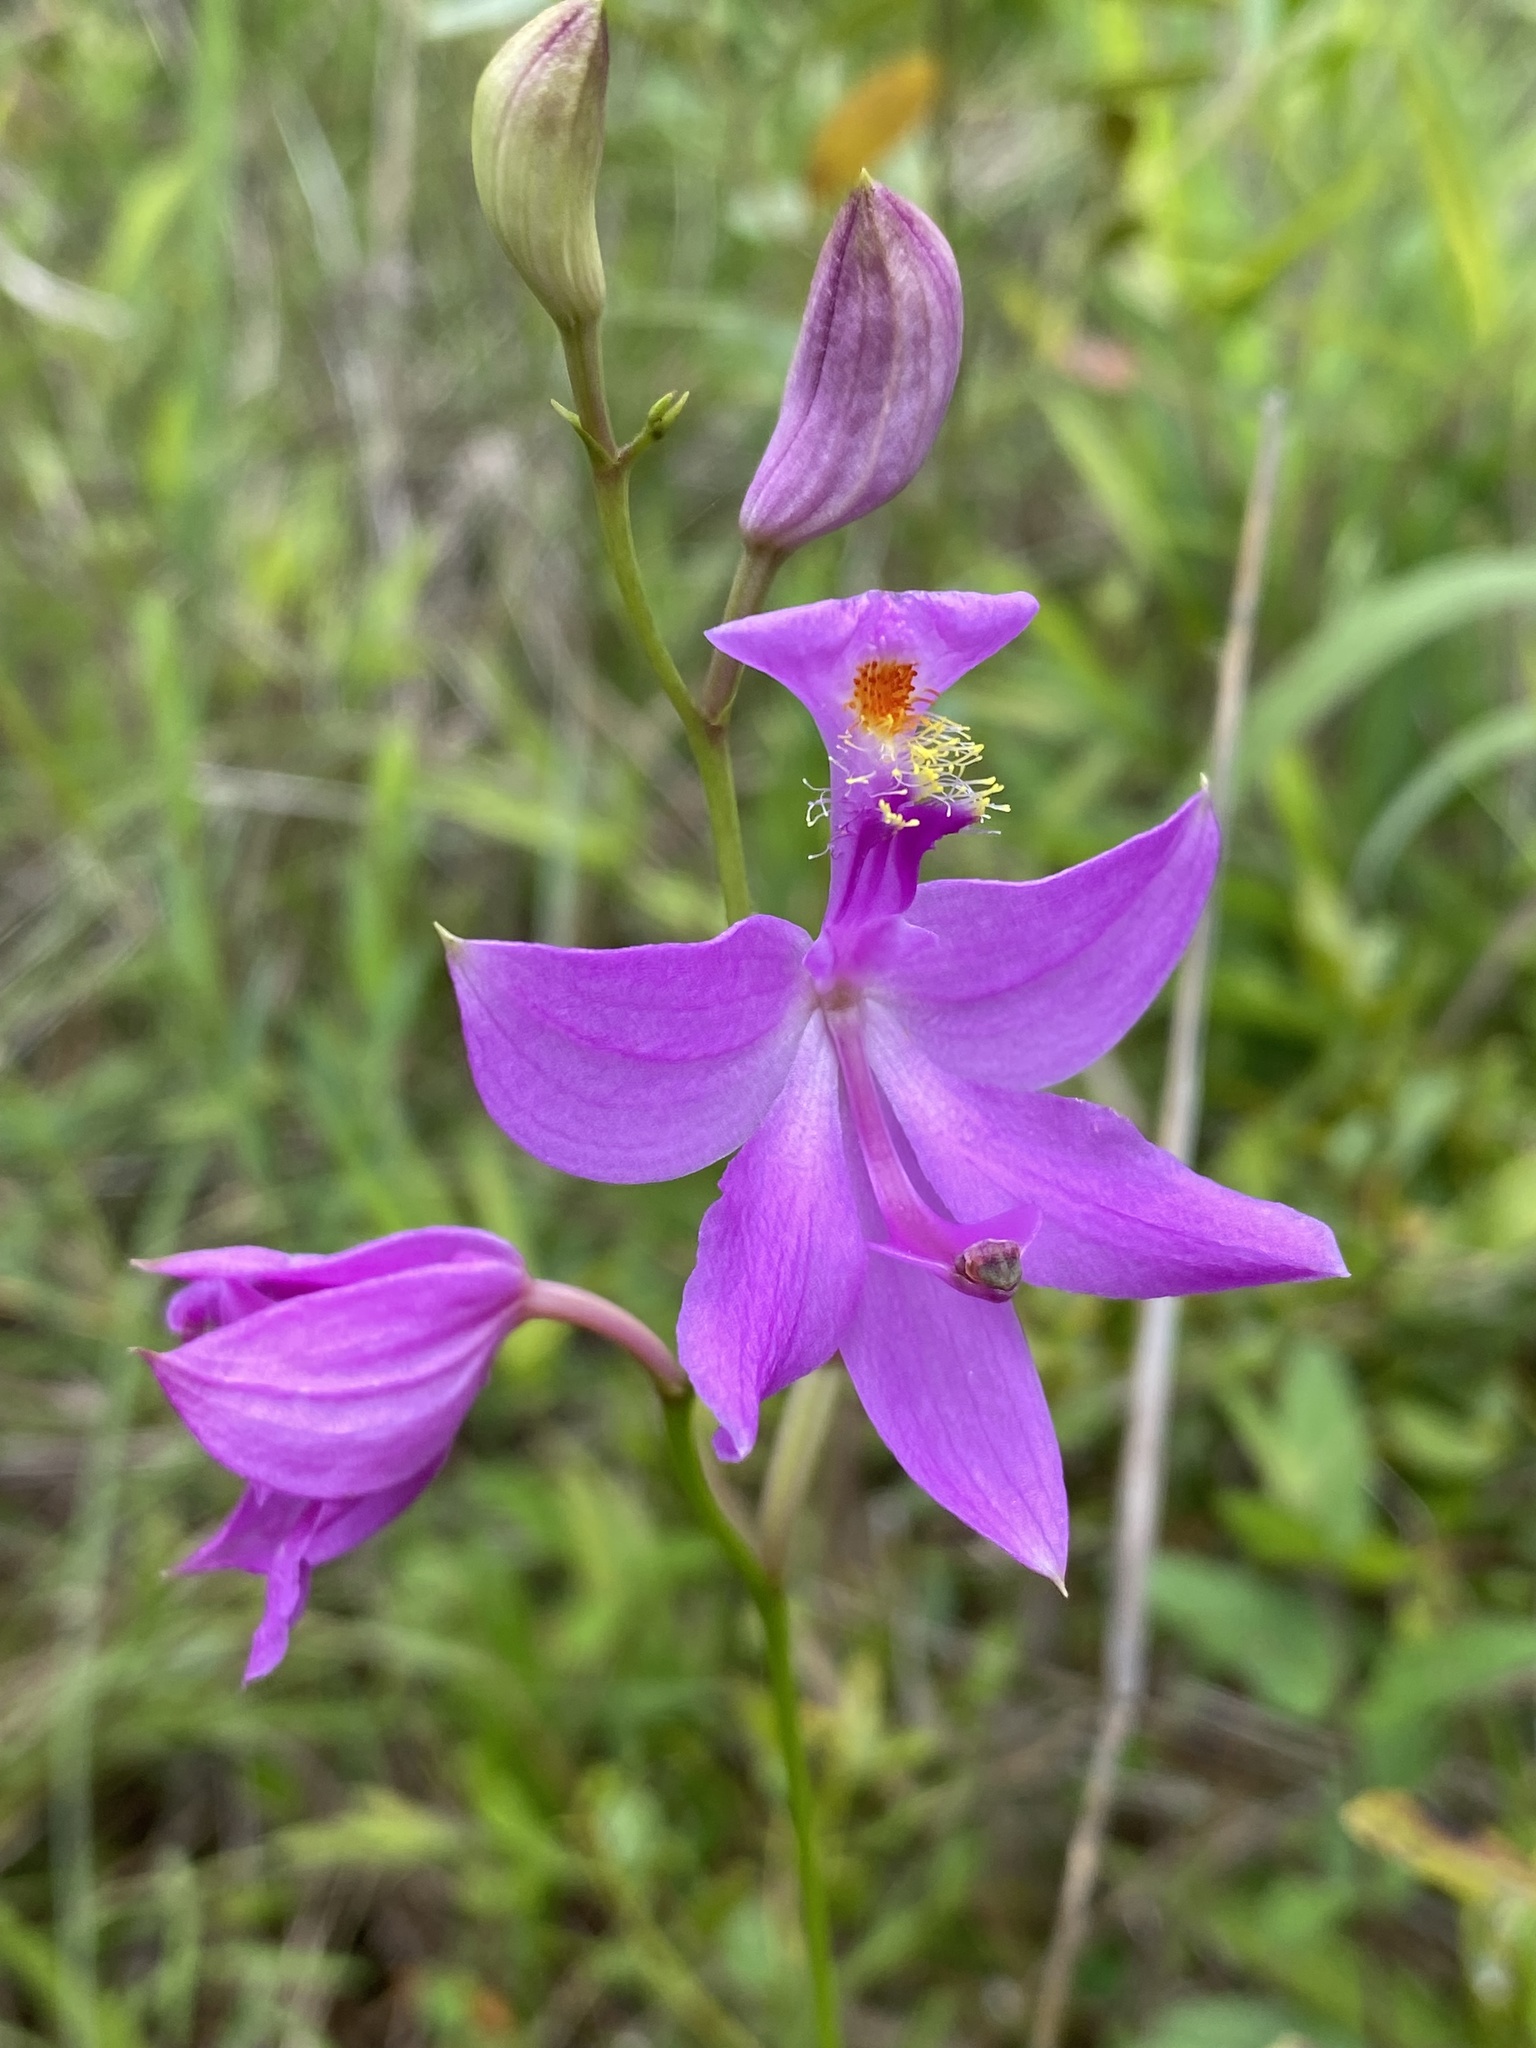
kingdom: Plantae
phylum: Tracheophyta
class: Liliopsida
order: Asparagales
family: Orchidaceae
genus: Calopogon
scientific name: Calopogon tuberosus
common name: Grass-pink
